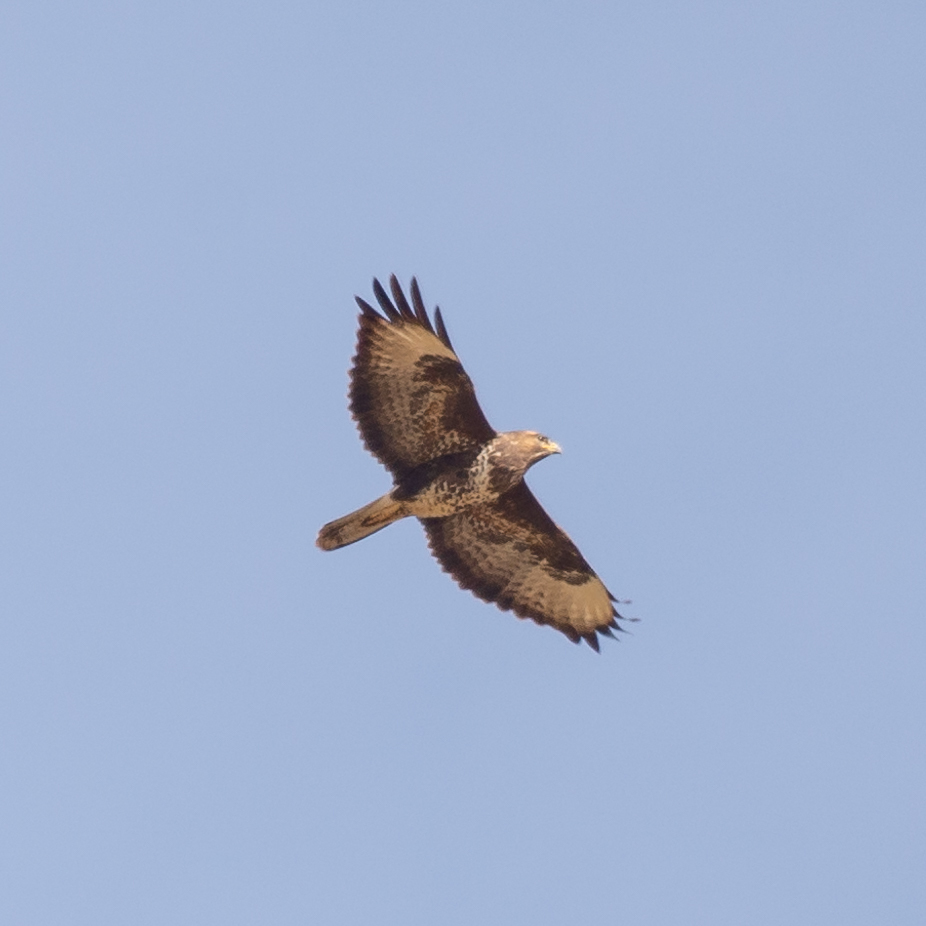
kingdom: Animalia
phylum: Chordata
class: Aves
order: Accipitriformes
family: Accipitridae
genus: Buteo
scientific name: Buteo buteo
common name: Common buzzard
